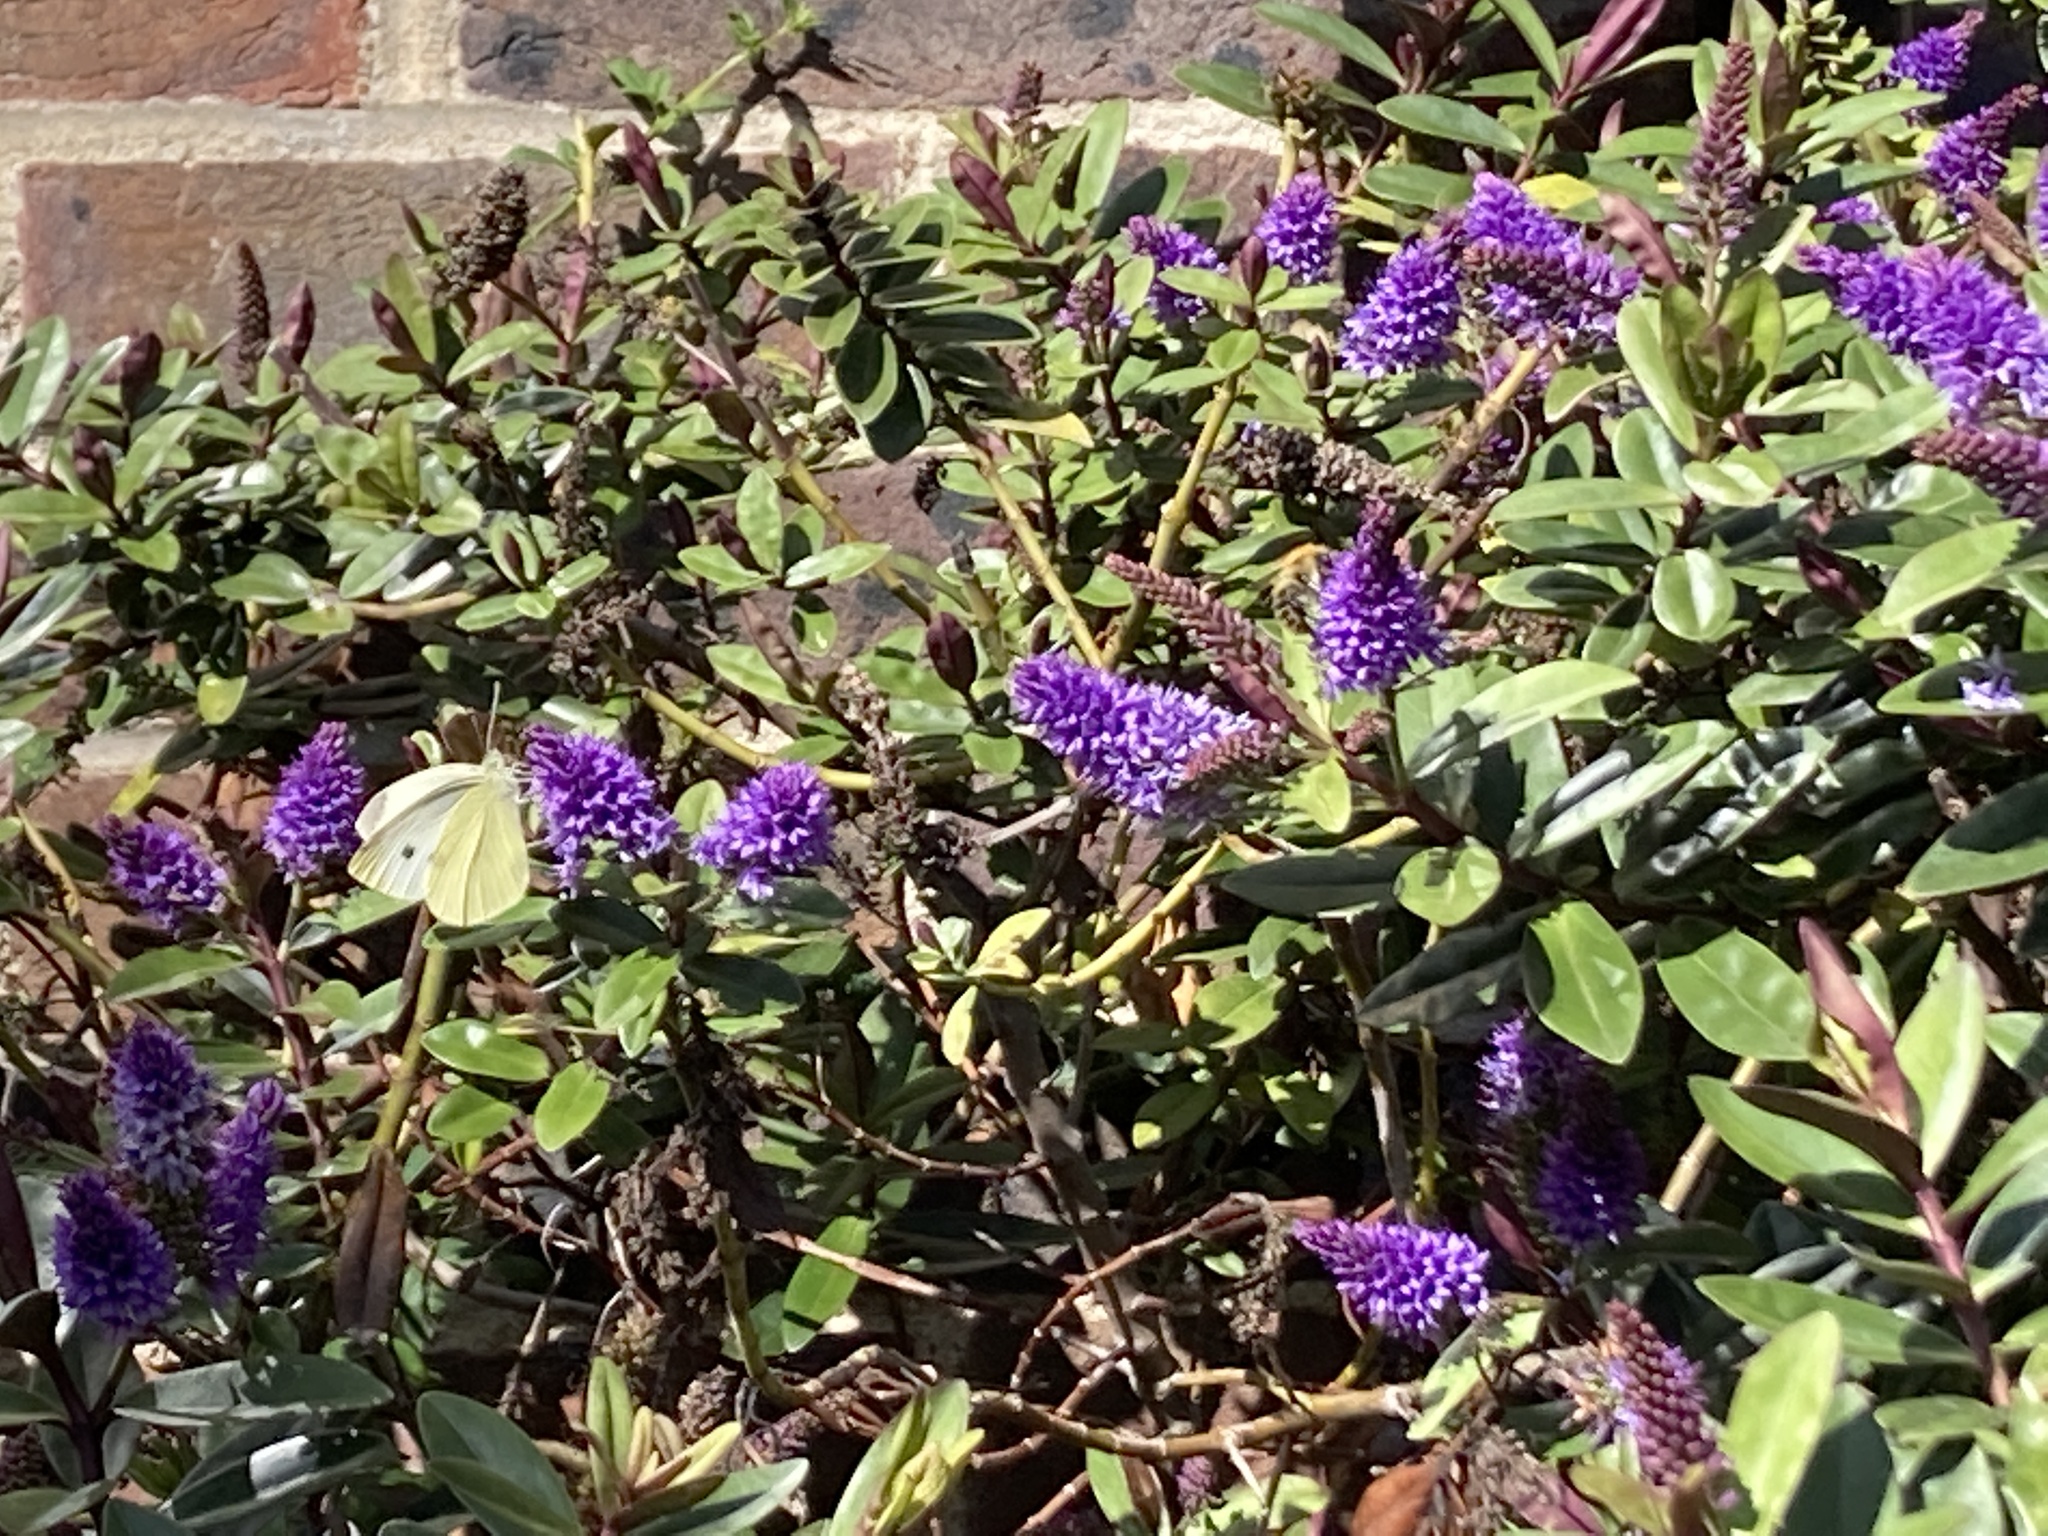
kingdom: Animalia
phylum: Arthropoda
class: Insecta
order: Lepidoptera
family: Pieridae
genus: Pieris
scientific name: Pieris rapae
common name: Small white
